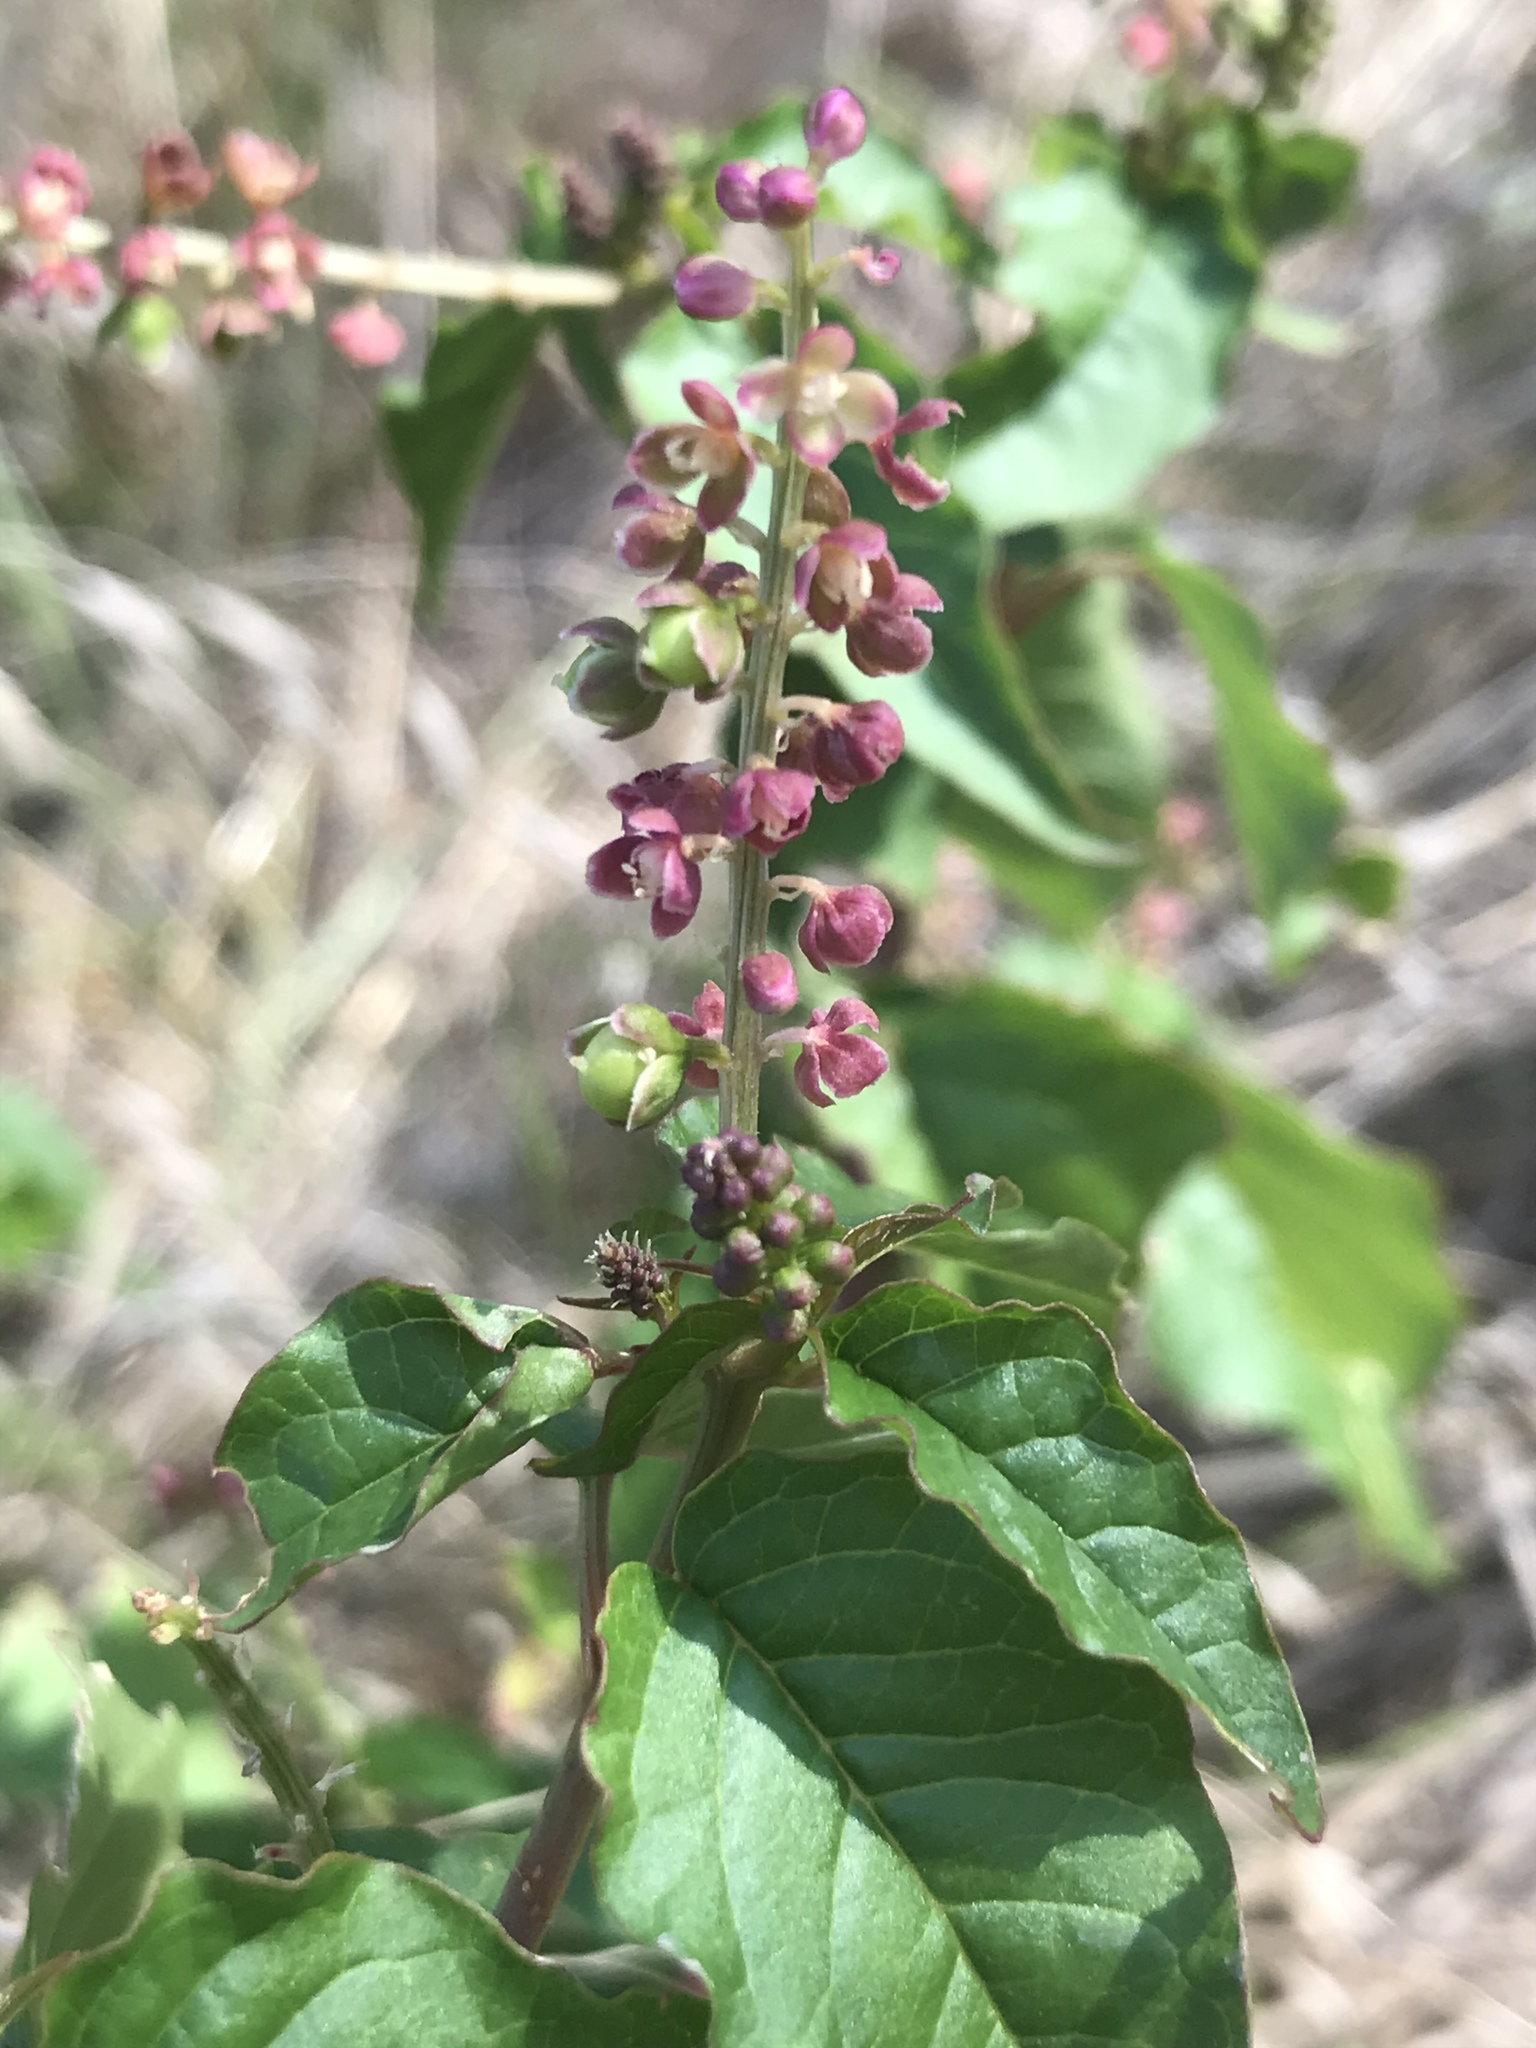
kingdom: Plantae
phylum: Tracheophyta
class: Magnoliopsida
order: Caryophyllales
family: Phytolaccaceae
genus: Rivina
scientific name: Rivina humilis
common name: Rougeplant
